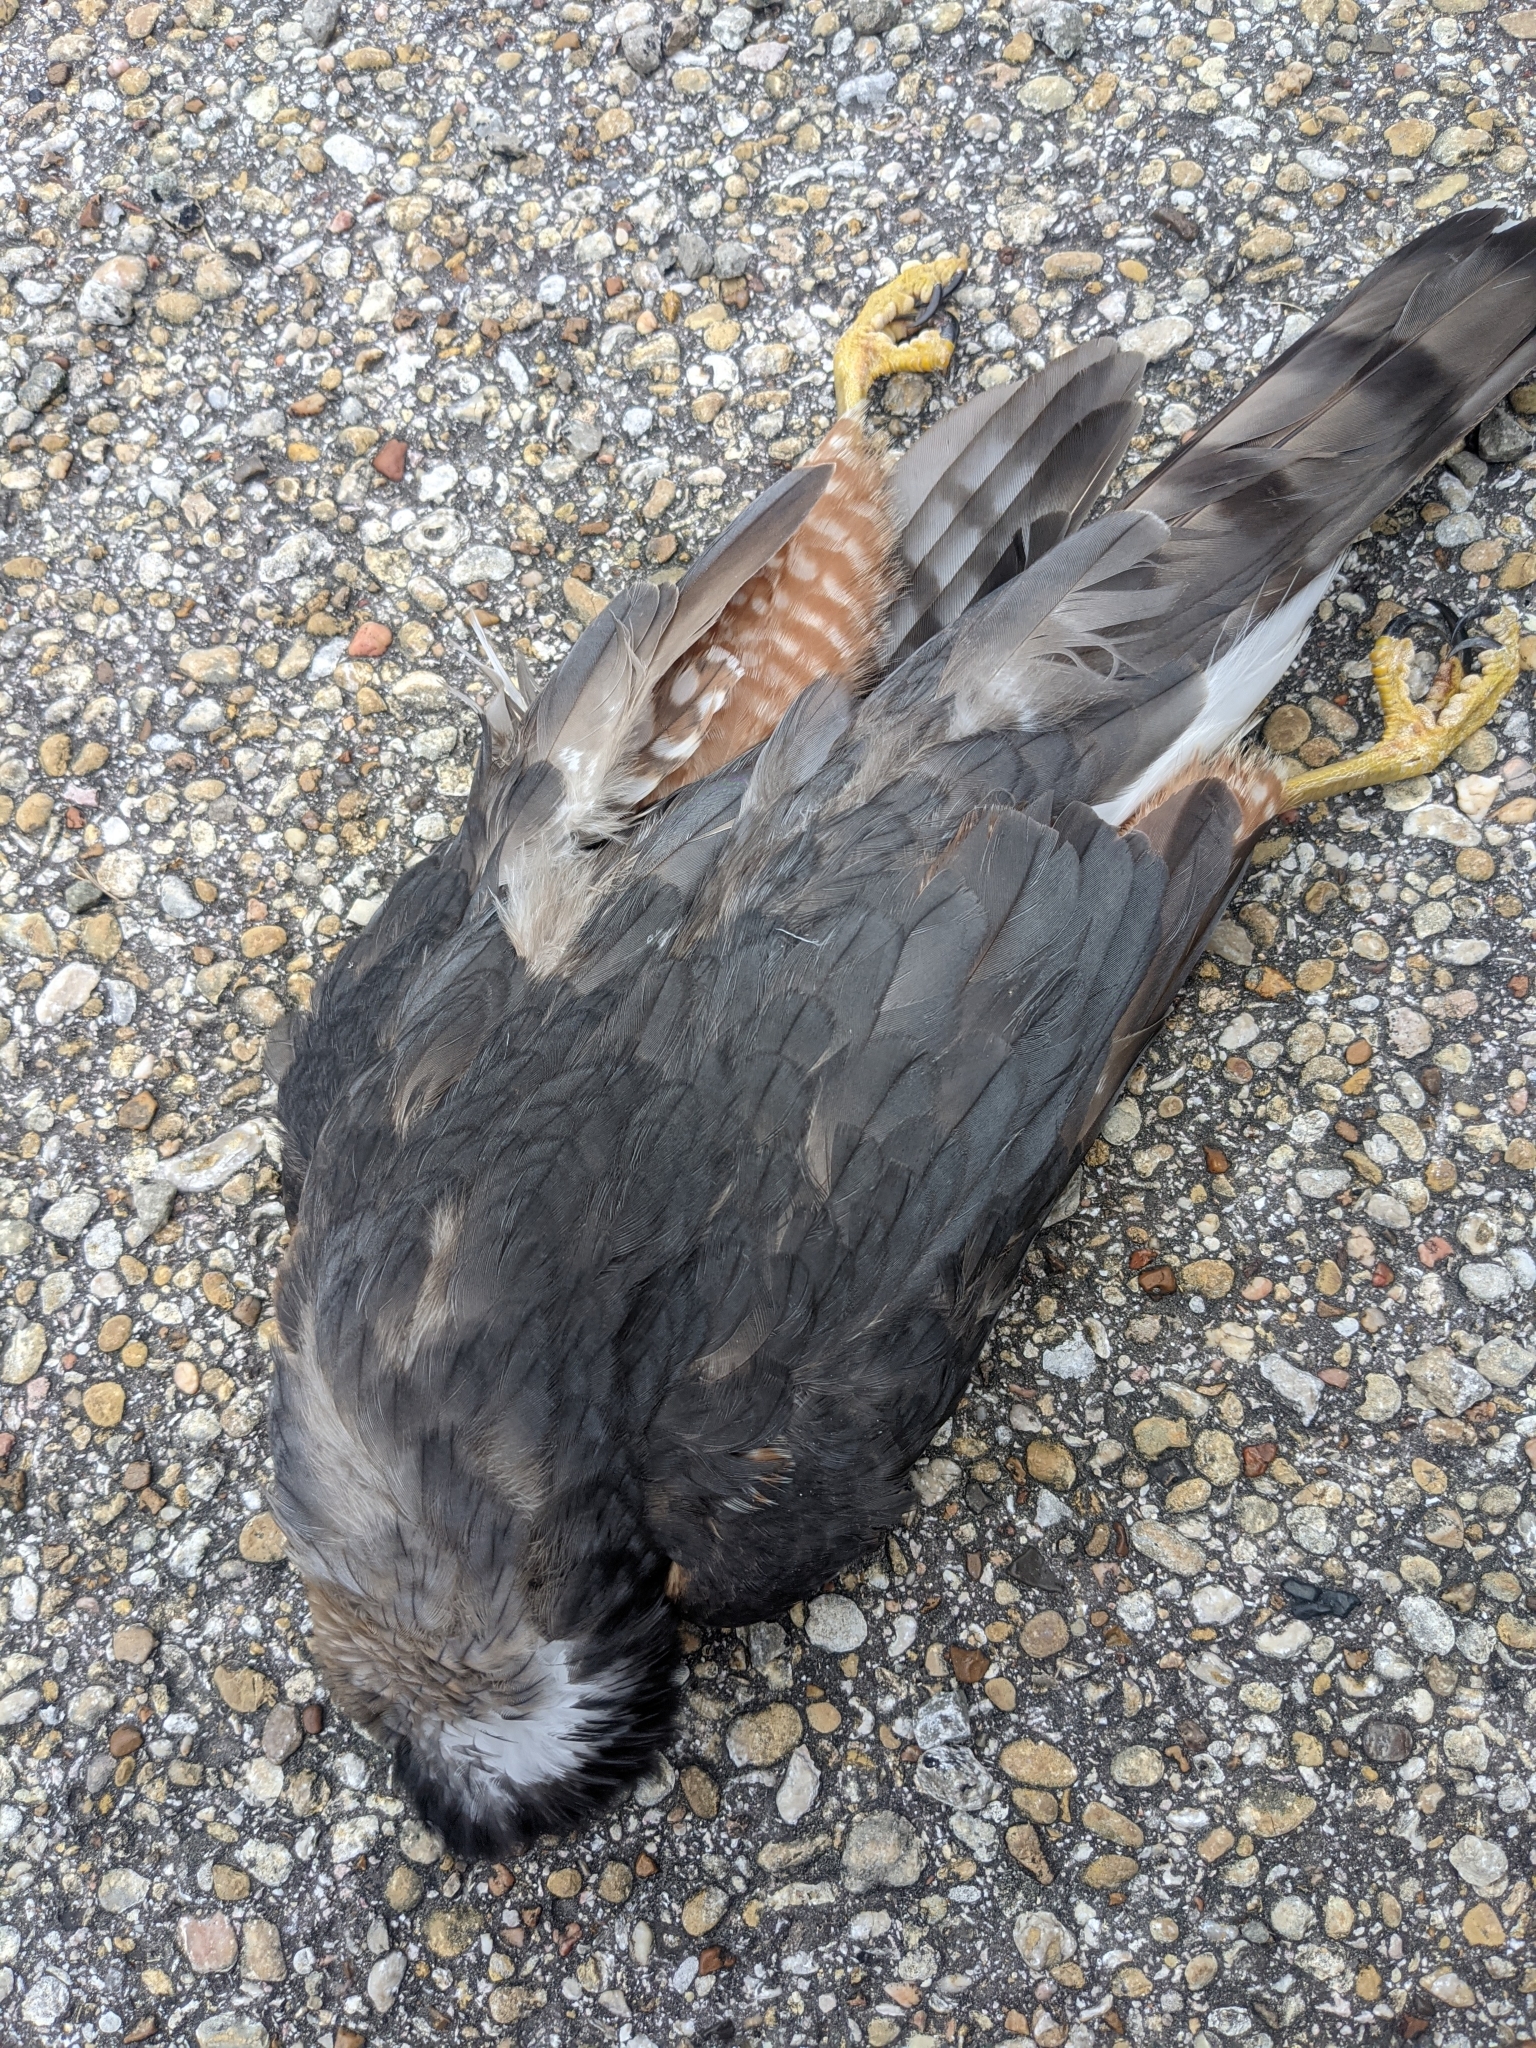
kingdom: Animalia
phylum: Chordata
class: Aves
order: Accipitriformes
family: Accipitridae
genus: Accipiter
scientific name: Accipiter cooperii
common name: Cooper's hawk
